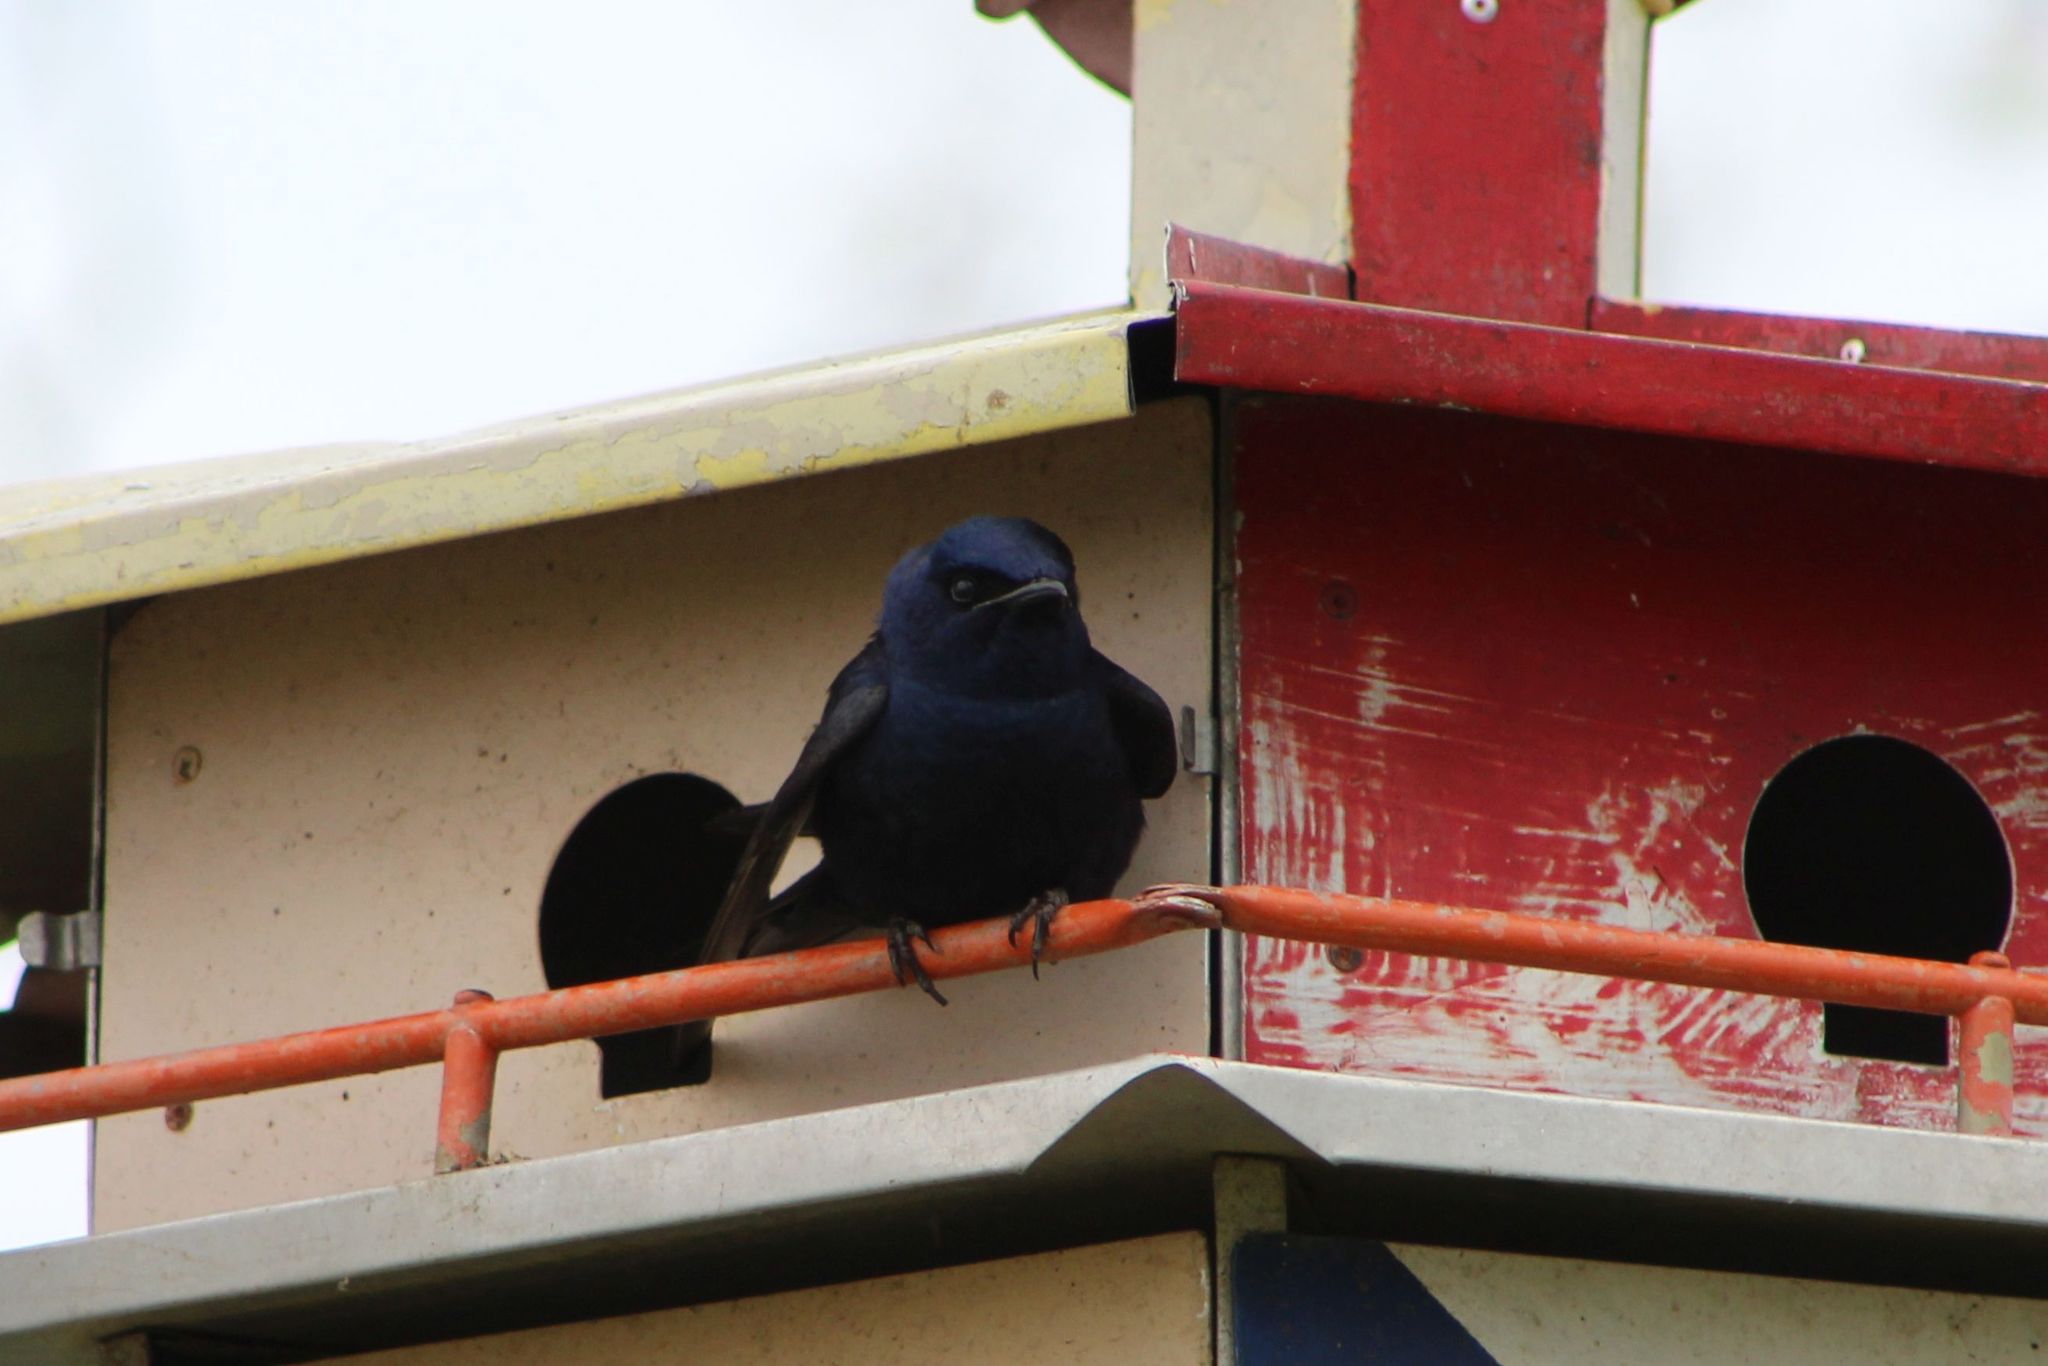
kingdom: Animalia
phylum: Chordata
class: Aves
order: Passeriformes
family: Hirundinidae
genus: Progne
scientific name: Progne subis
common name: Purple martin
